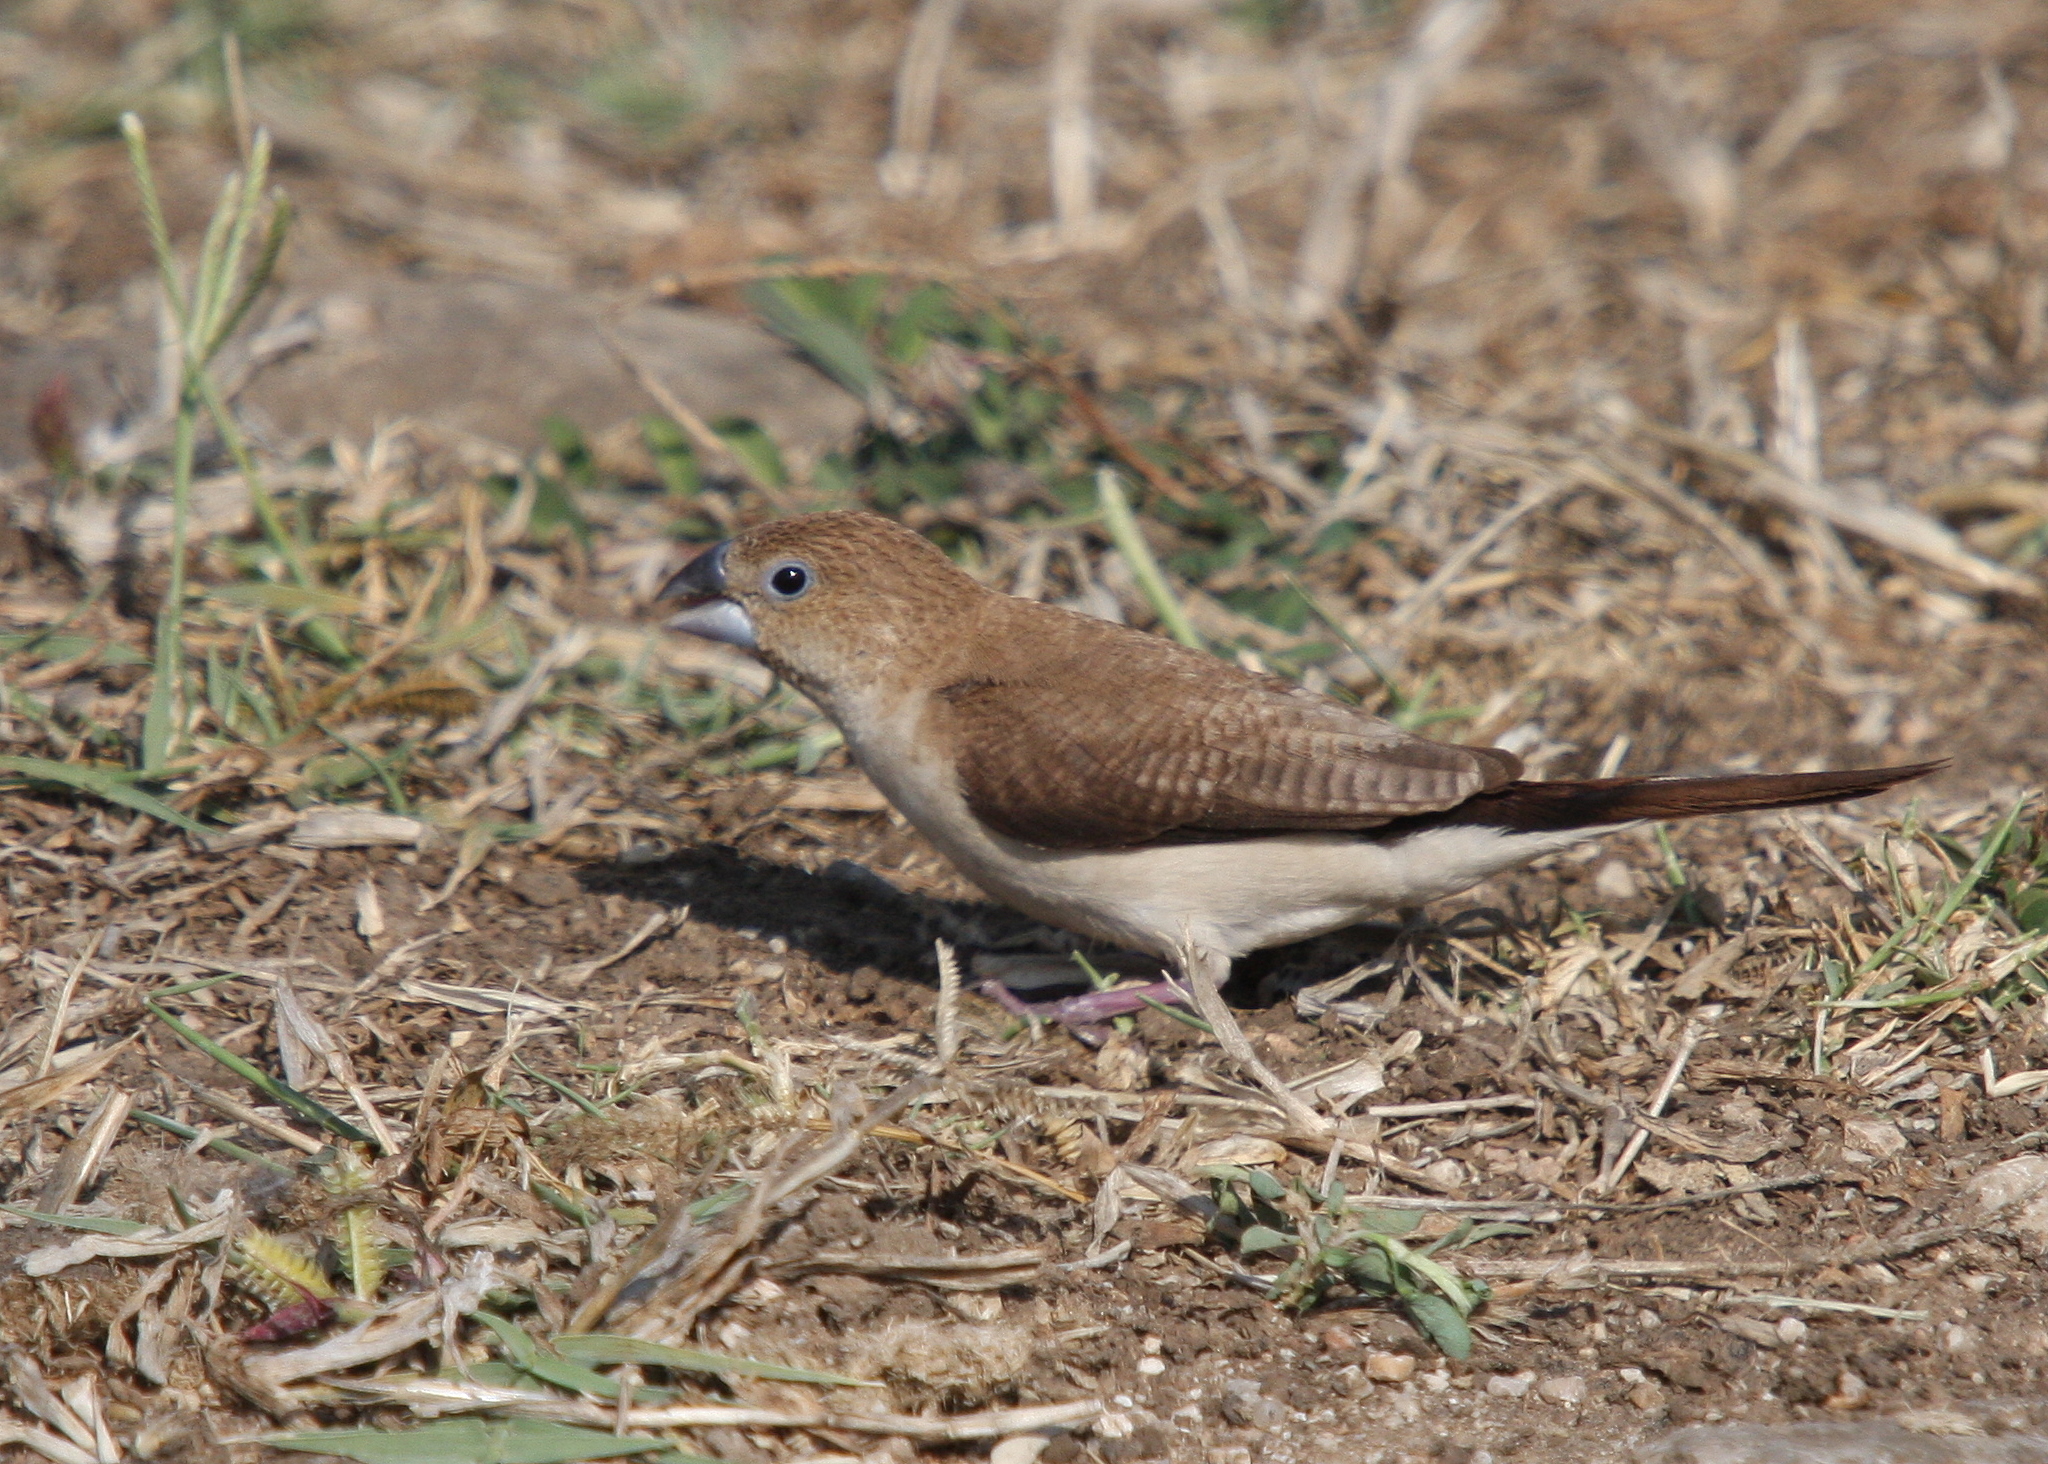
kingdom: Animalia
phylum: Chordata
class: Aves
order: Passeriformes
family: Estrildidae
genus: Euodice
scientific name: Euodice cantans
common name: African silverbill
